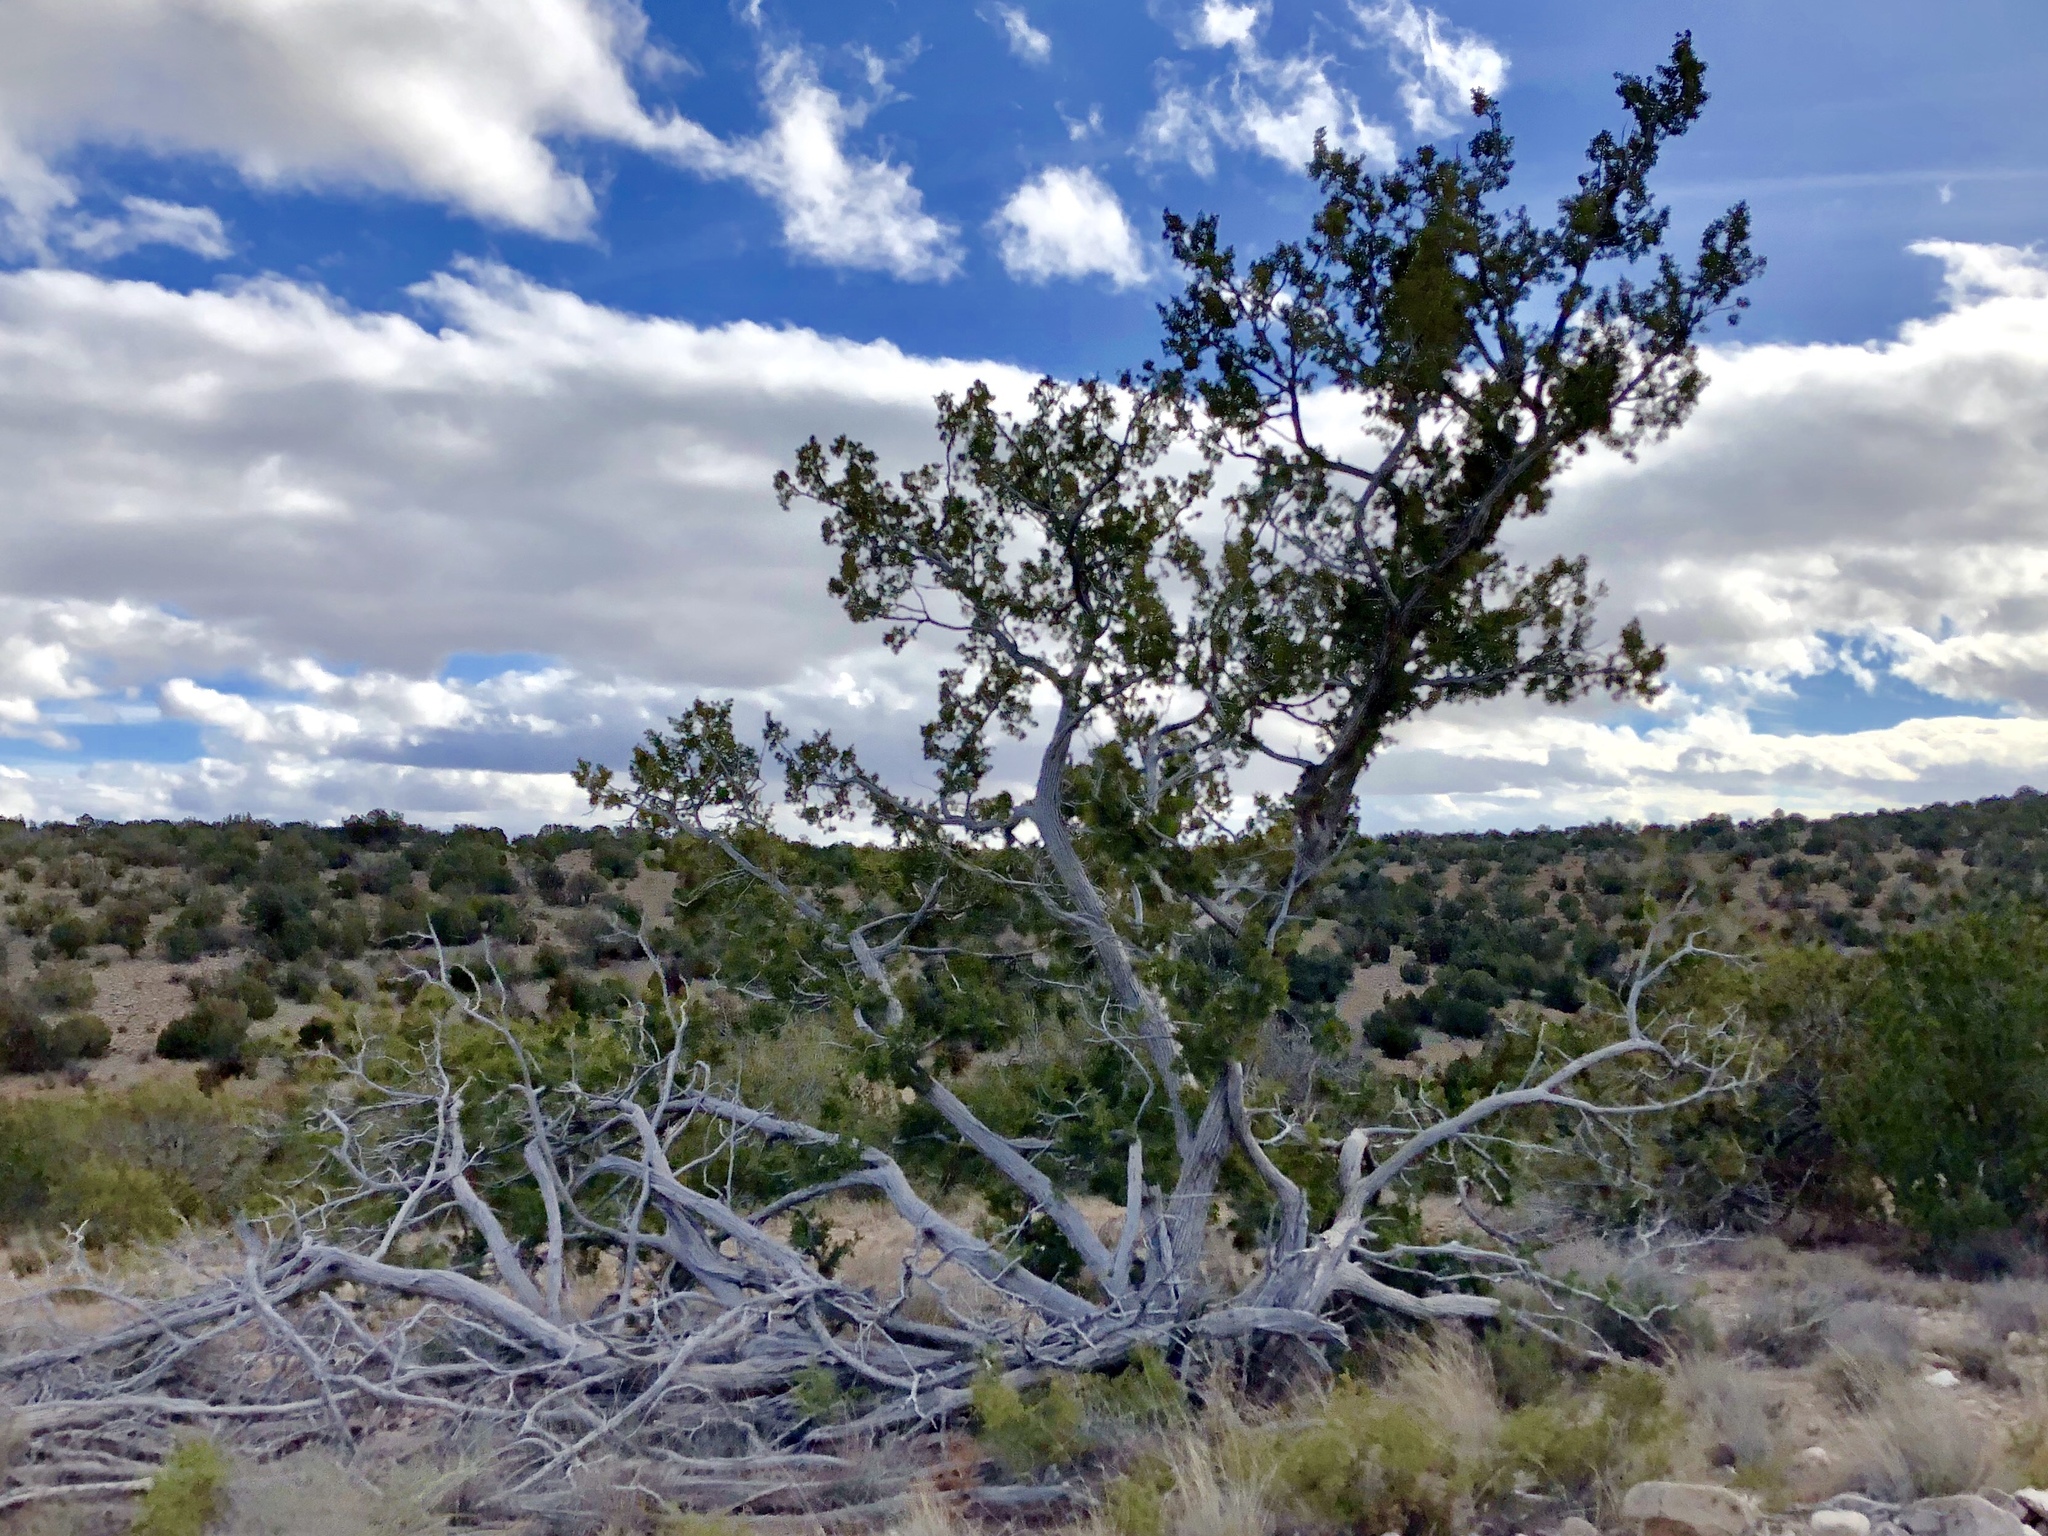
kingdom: Plantae
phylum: Tracheophyta
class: Pinopsida
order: Pinales
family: Cupressaceae
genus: Juniperus
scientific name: Juniperus monosperma
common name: One-seed juniper
